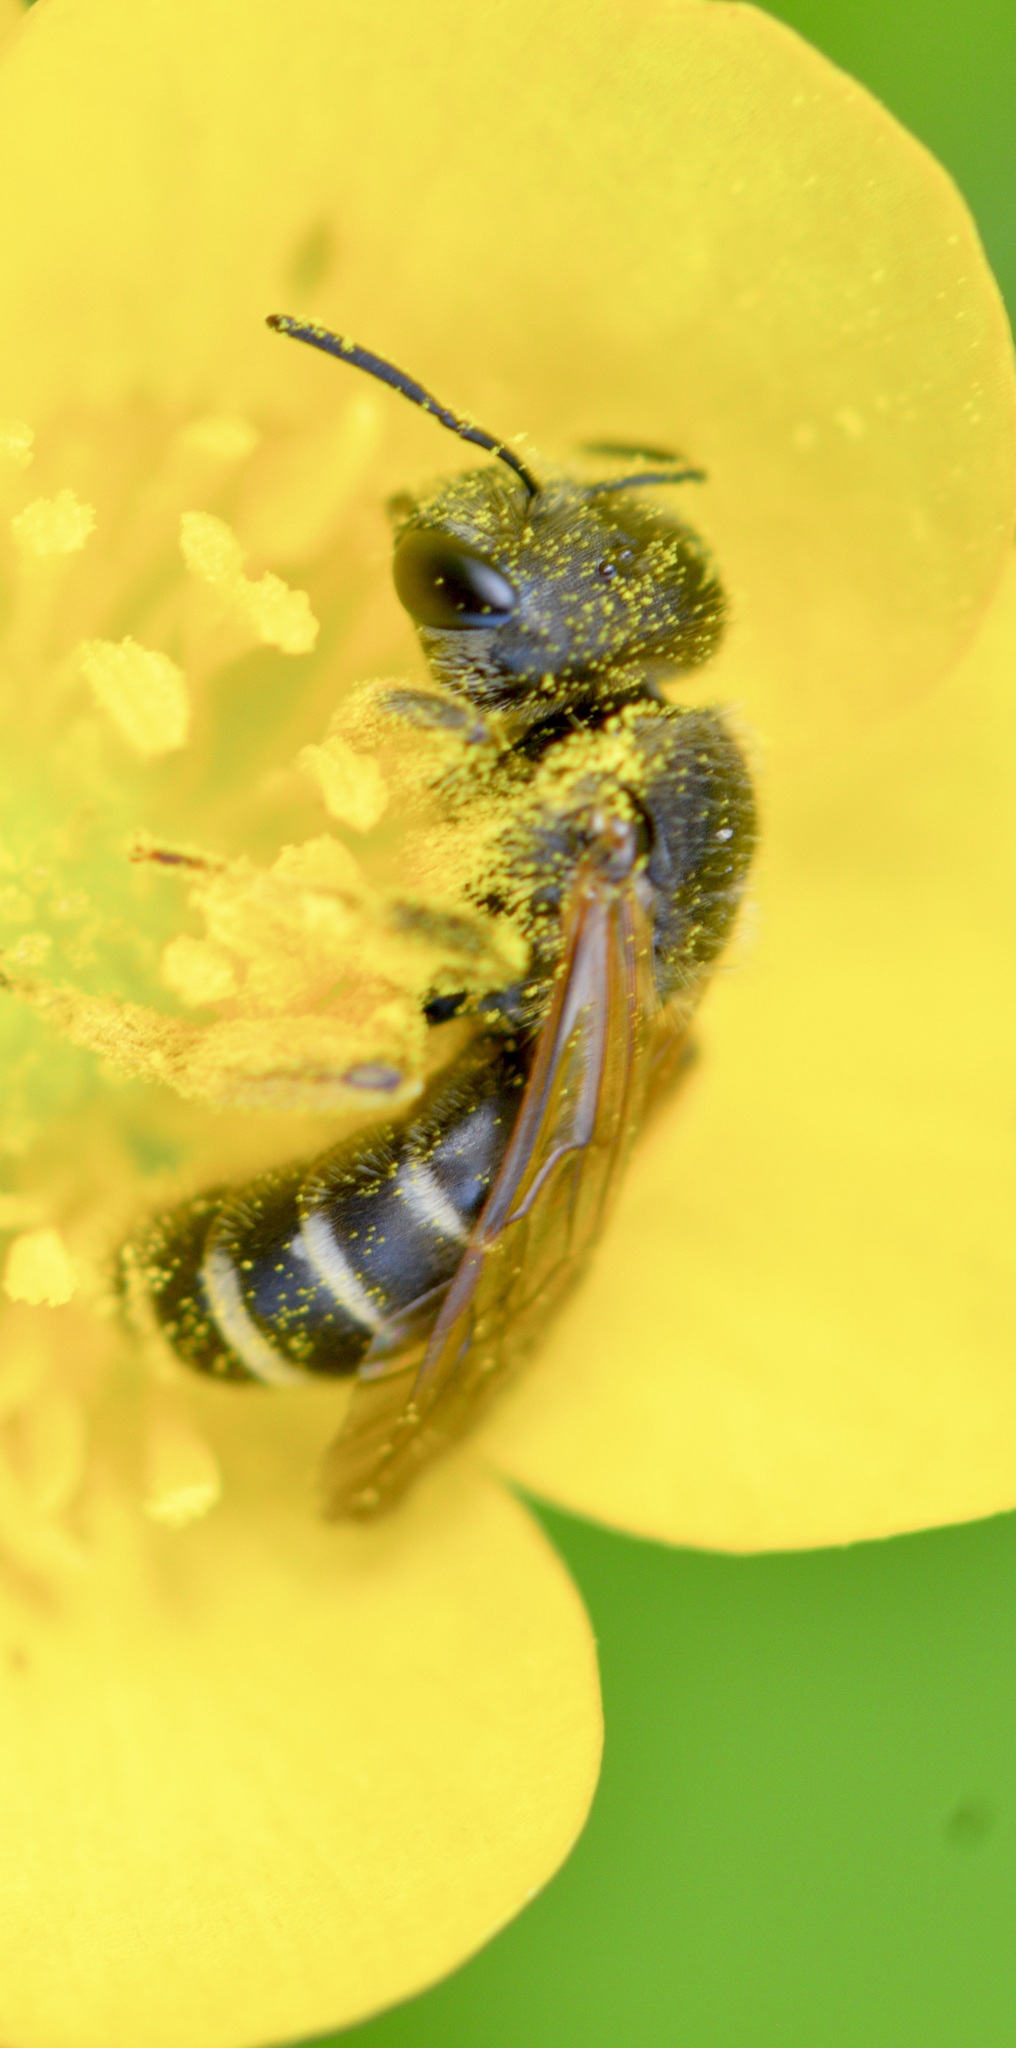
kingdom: Animalia
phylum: Arthropoda
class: Insecta
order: Hymenoptera
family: Halictidae
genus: Halictus
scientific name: Halictus ligatus
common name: Ligated furrow bee
